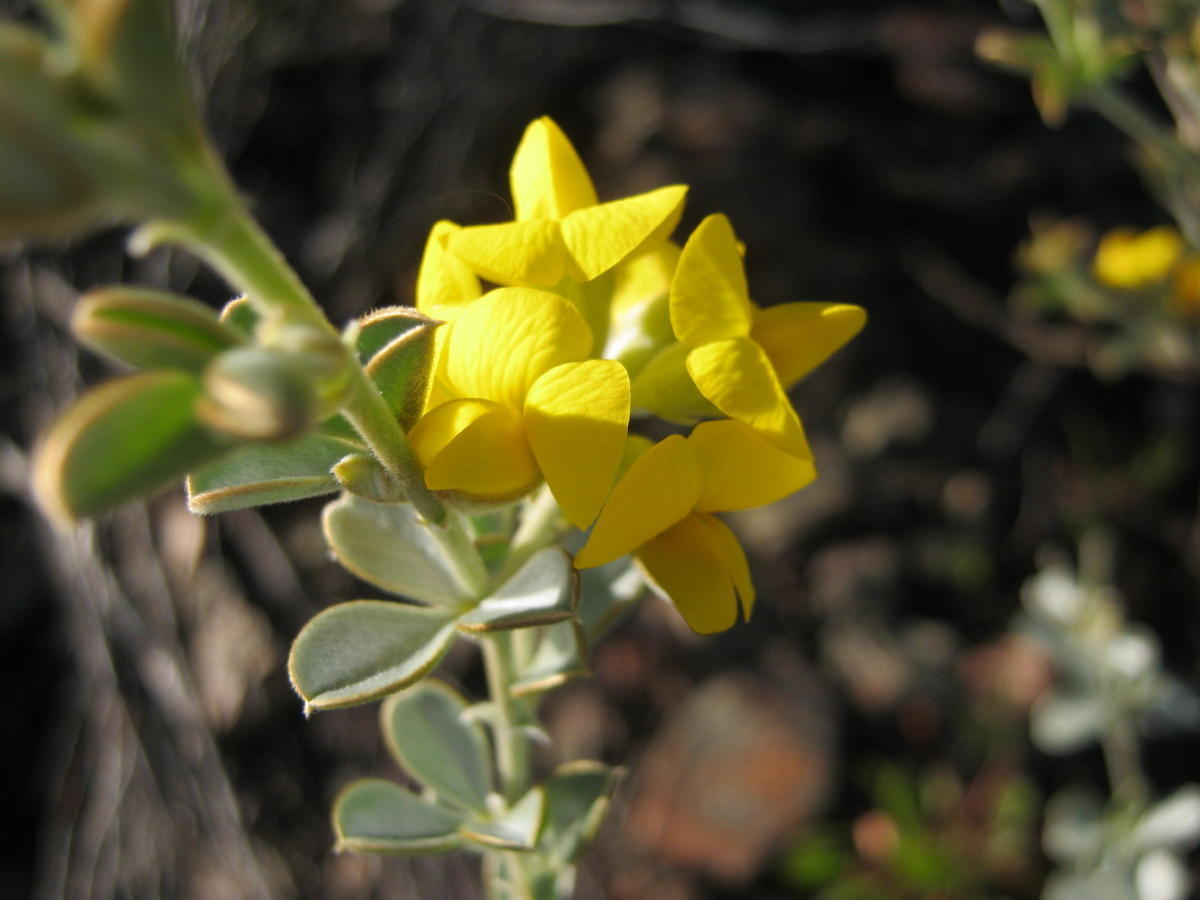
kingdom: Plantae
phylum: Tracheophyta
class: Magnoliopsida
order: Fabales
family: Fabaceae
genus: Argyrolobium
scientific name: Argyrolobium incanum
